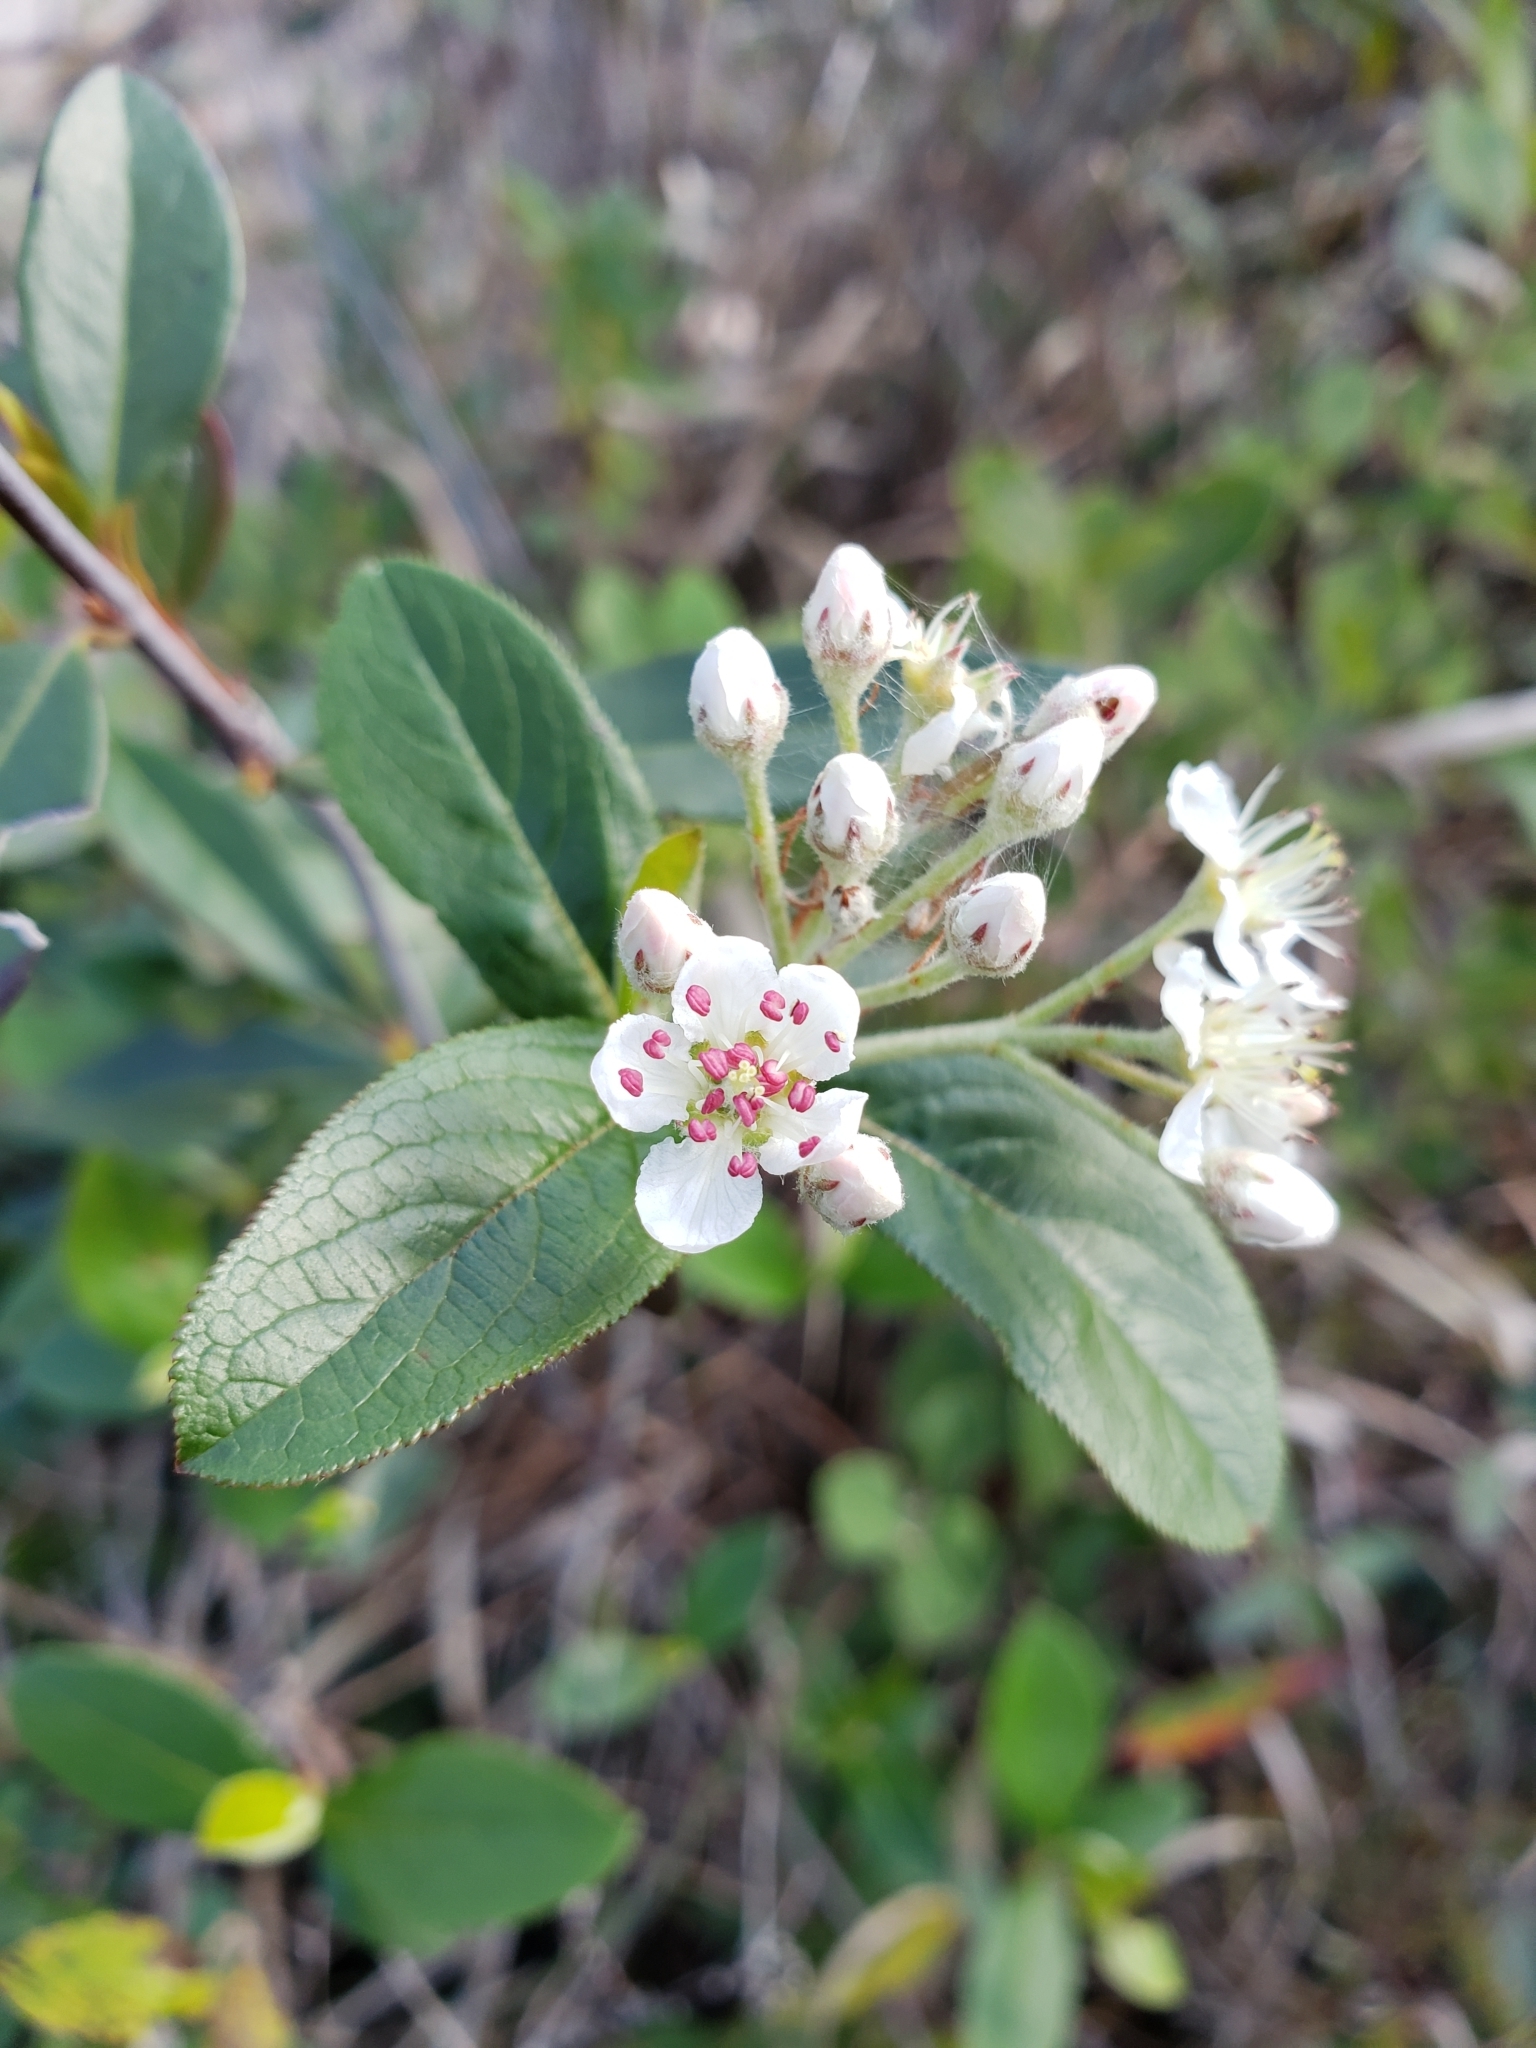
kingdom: Plantae
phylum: Tracheophyta
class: Magnoliopsida
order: Rosales
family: Rosaceae
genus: Aronia
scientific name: Aronia arbutifolia
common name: Red chokeberry
